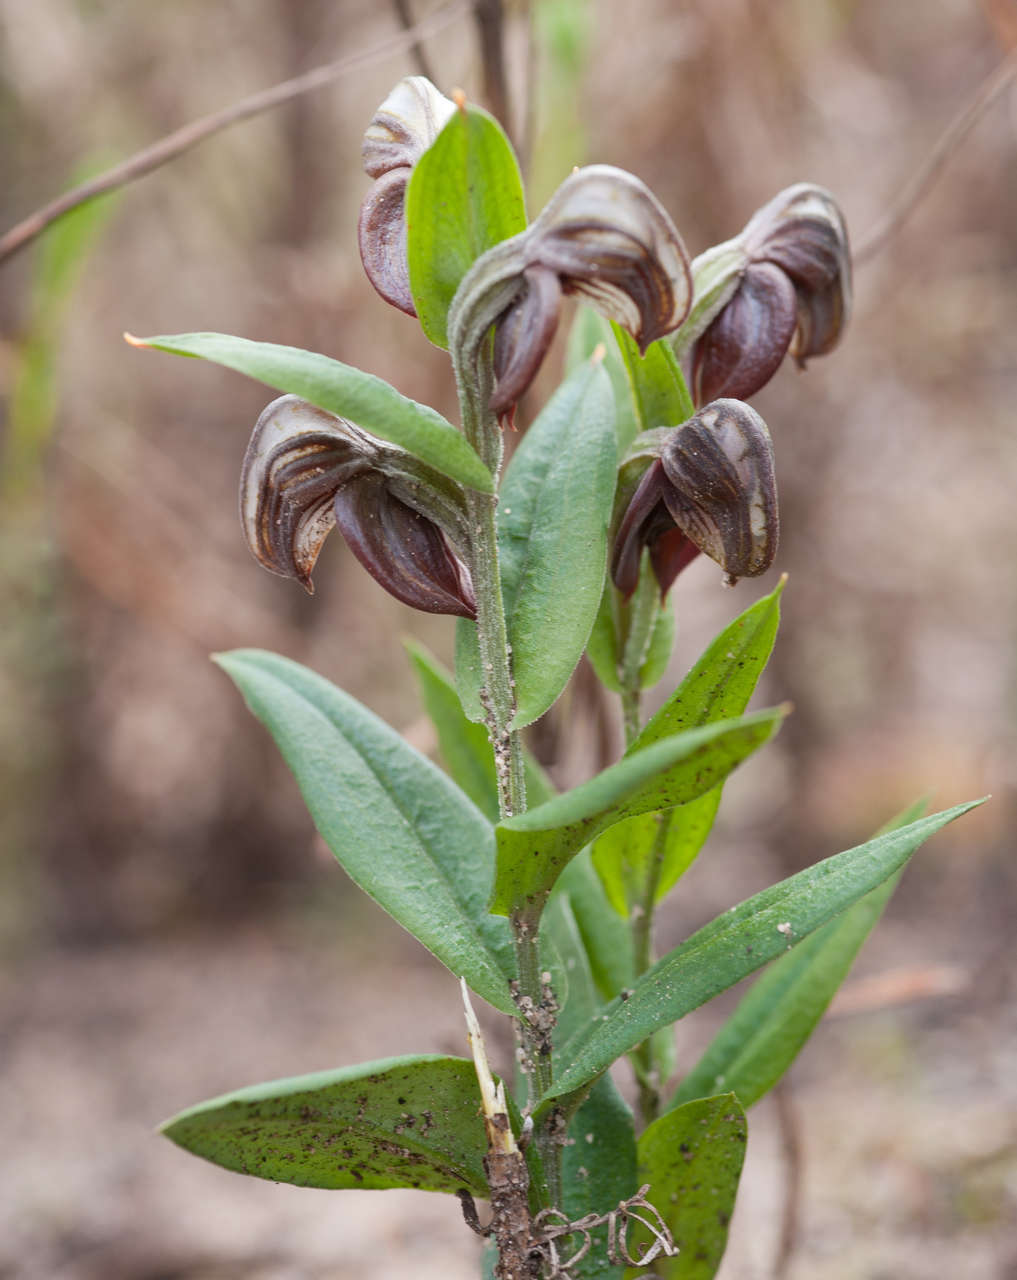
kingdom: Plantae
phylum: Tracheophyta
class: Liliopsida
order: Asparagales
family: Orchidaceae
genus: Pterostylis
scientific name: Pterostylis sanguinea
